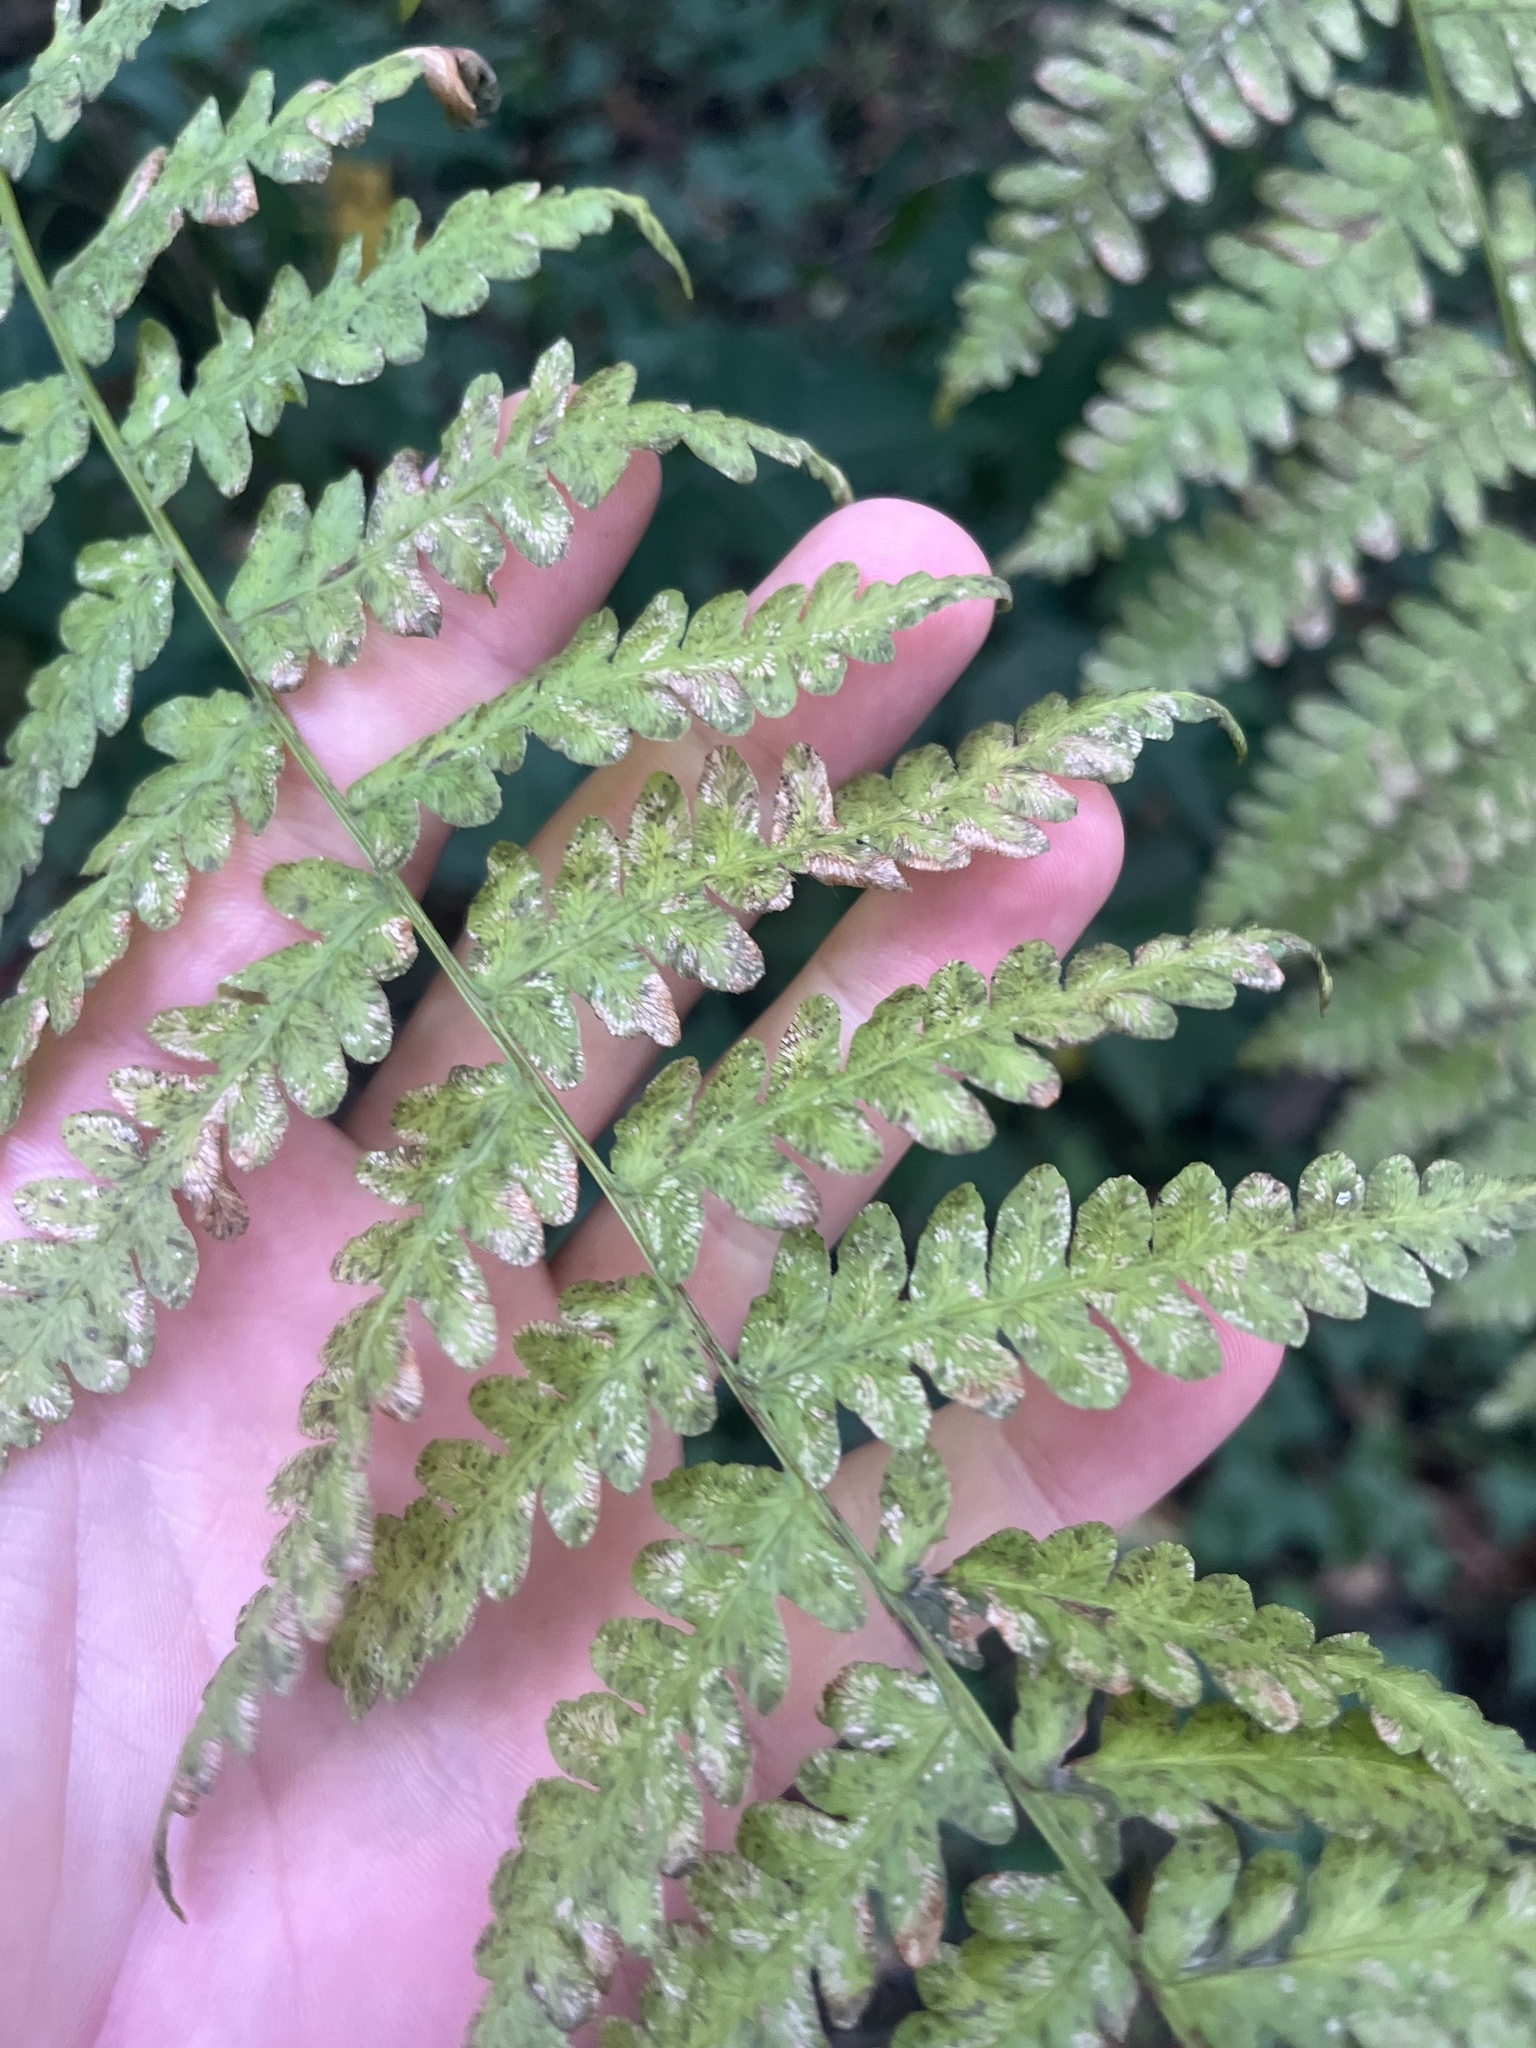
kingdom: Plantae
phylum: Tracheophyta
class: Polypodiopsida
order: Polypodiales
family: Dennstaedtiaceae
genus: Pteridium
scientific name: Pteridium aquilinum
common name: Bracken
